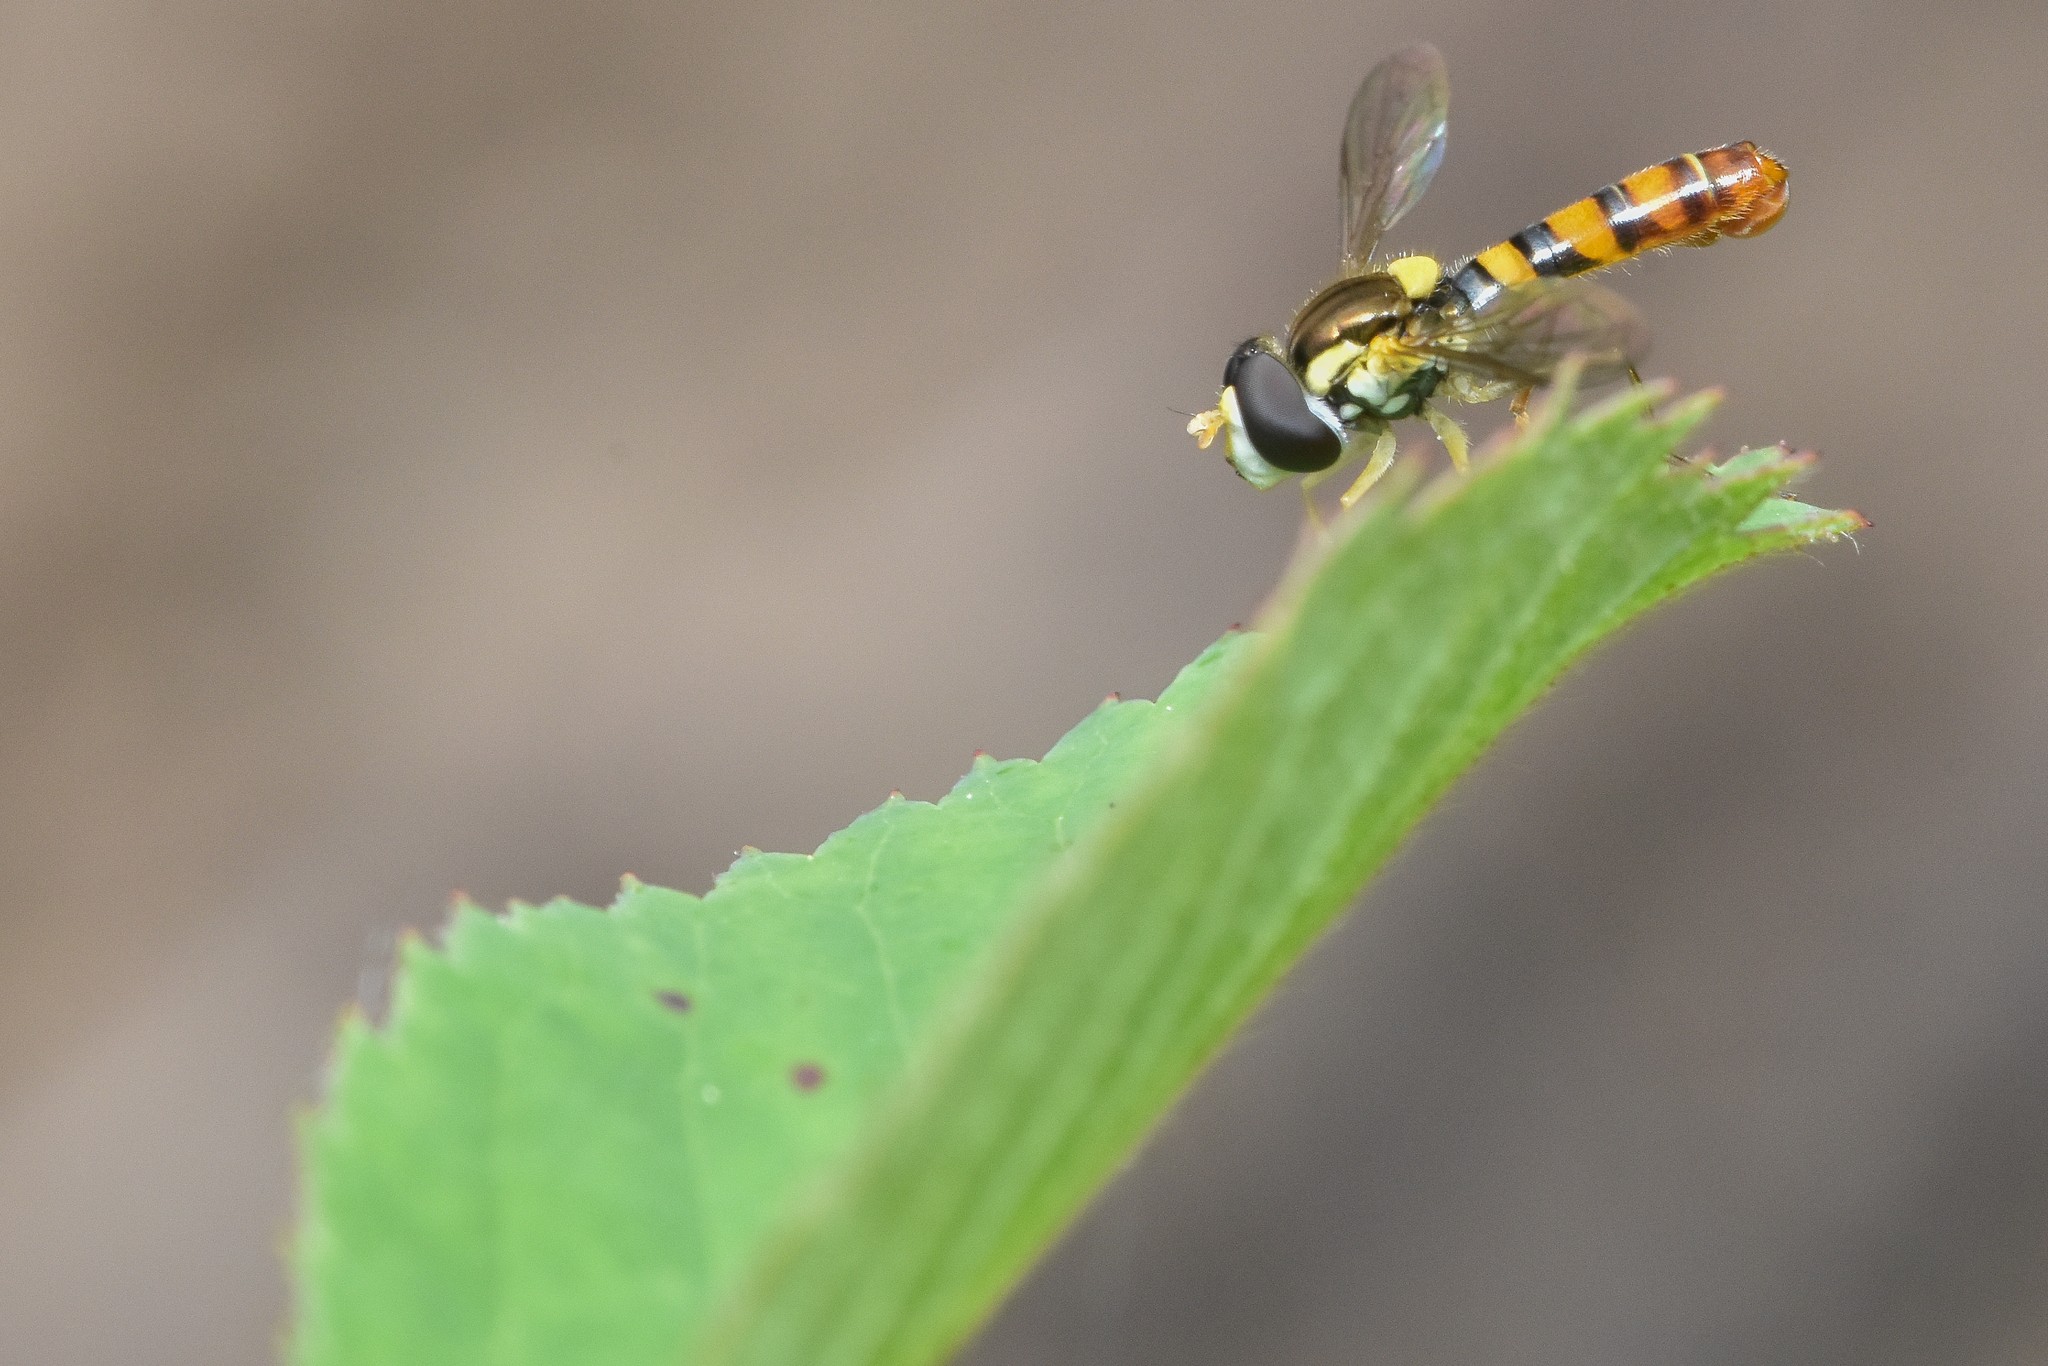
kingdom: Animalia
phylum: Arthropoda
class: Insecta
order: Diptera
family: Syrphidae
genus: Sphaerophoria
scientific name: Sphaerophoria contigua
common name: Tufted globetail
